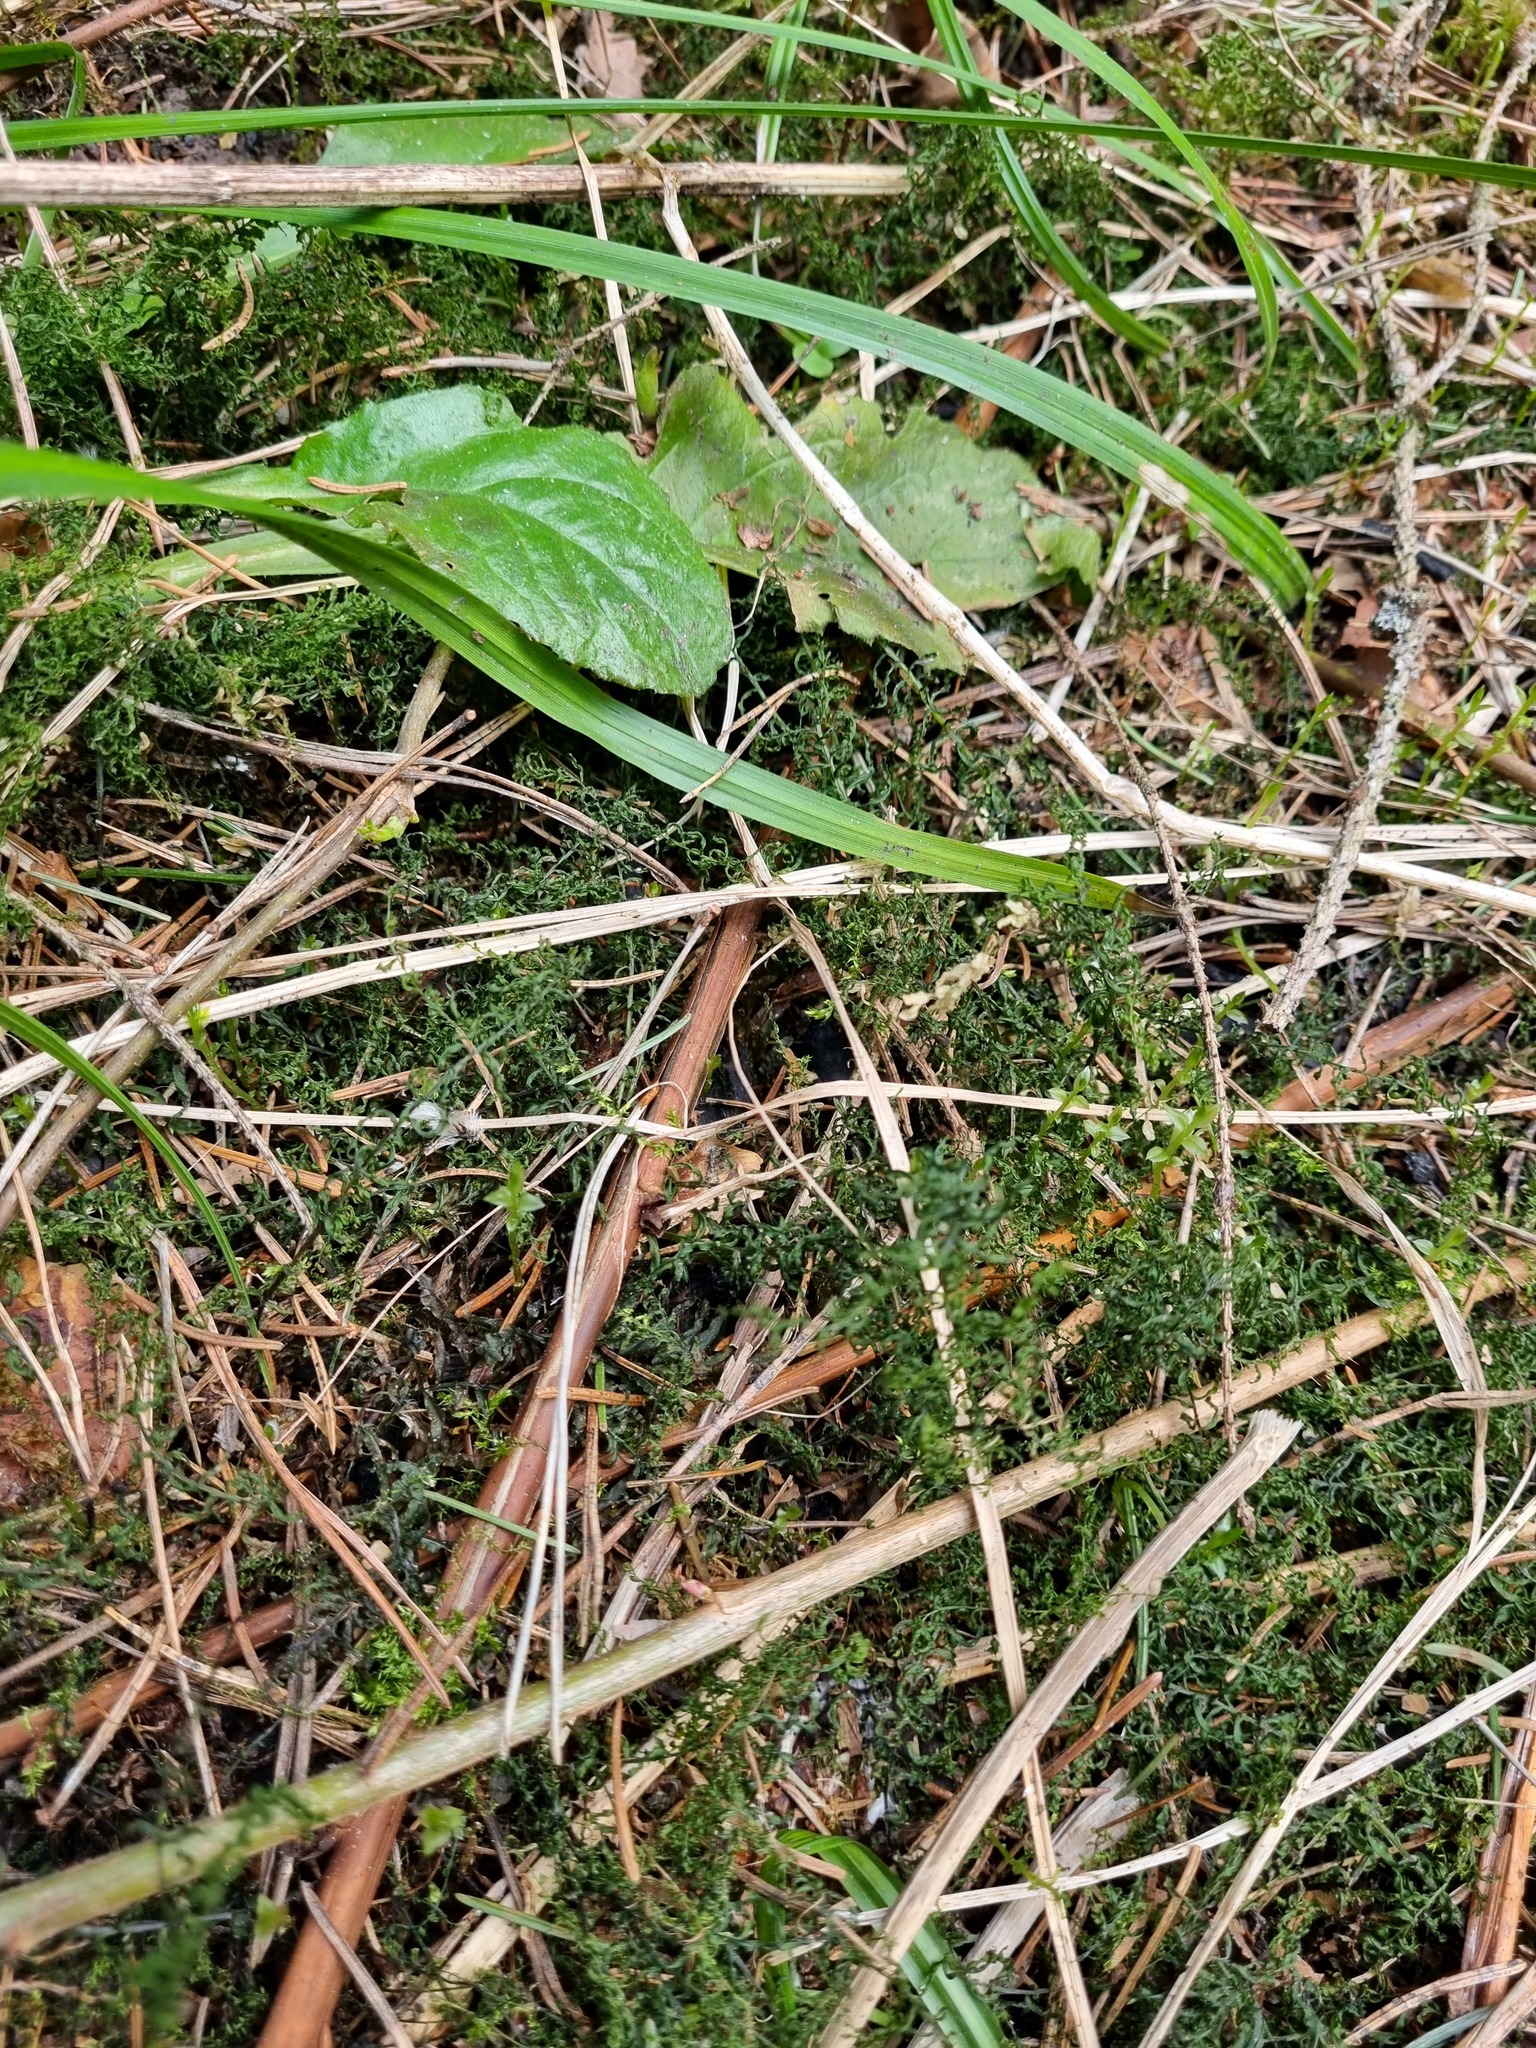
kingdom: Plantae
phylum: Bryophyta
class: Bryopsida
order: Bryales
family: Mniaceae
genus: Plagiomnium
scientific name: Plagiomnium undulatum
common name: Hart's-tongue thyme-moss
